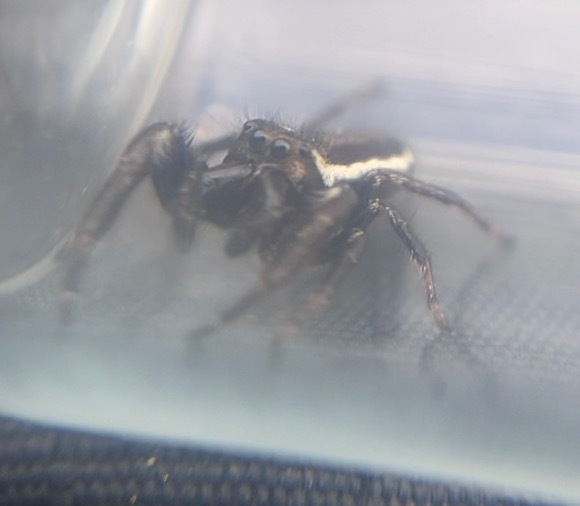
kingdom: Animalia
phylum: Arthropoda
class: Arachnida
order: Araneae
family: Salticidae
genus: Eris
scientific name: Eris militaris
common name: Bronze jumper
